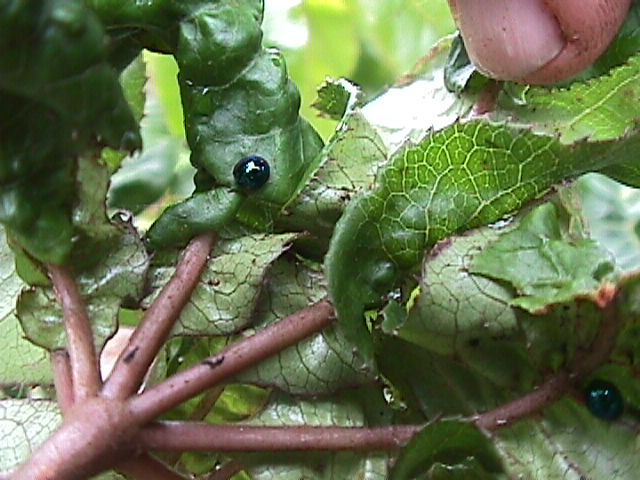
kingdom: Animalia
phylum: Arthropoda
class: Insecta
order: Coleoptera
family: Coccinellidae
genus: Halmus
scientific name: Halmus chalybeus
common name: Steel blue ladybird beetle
